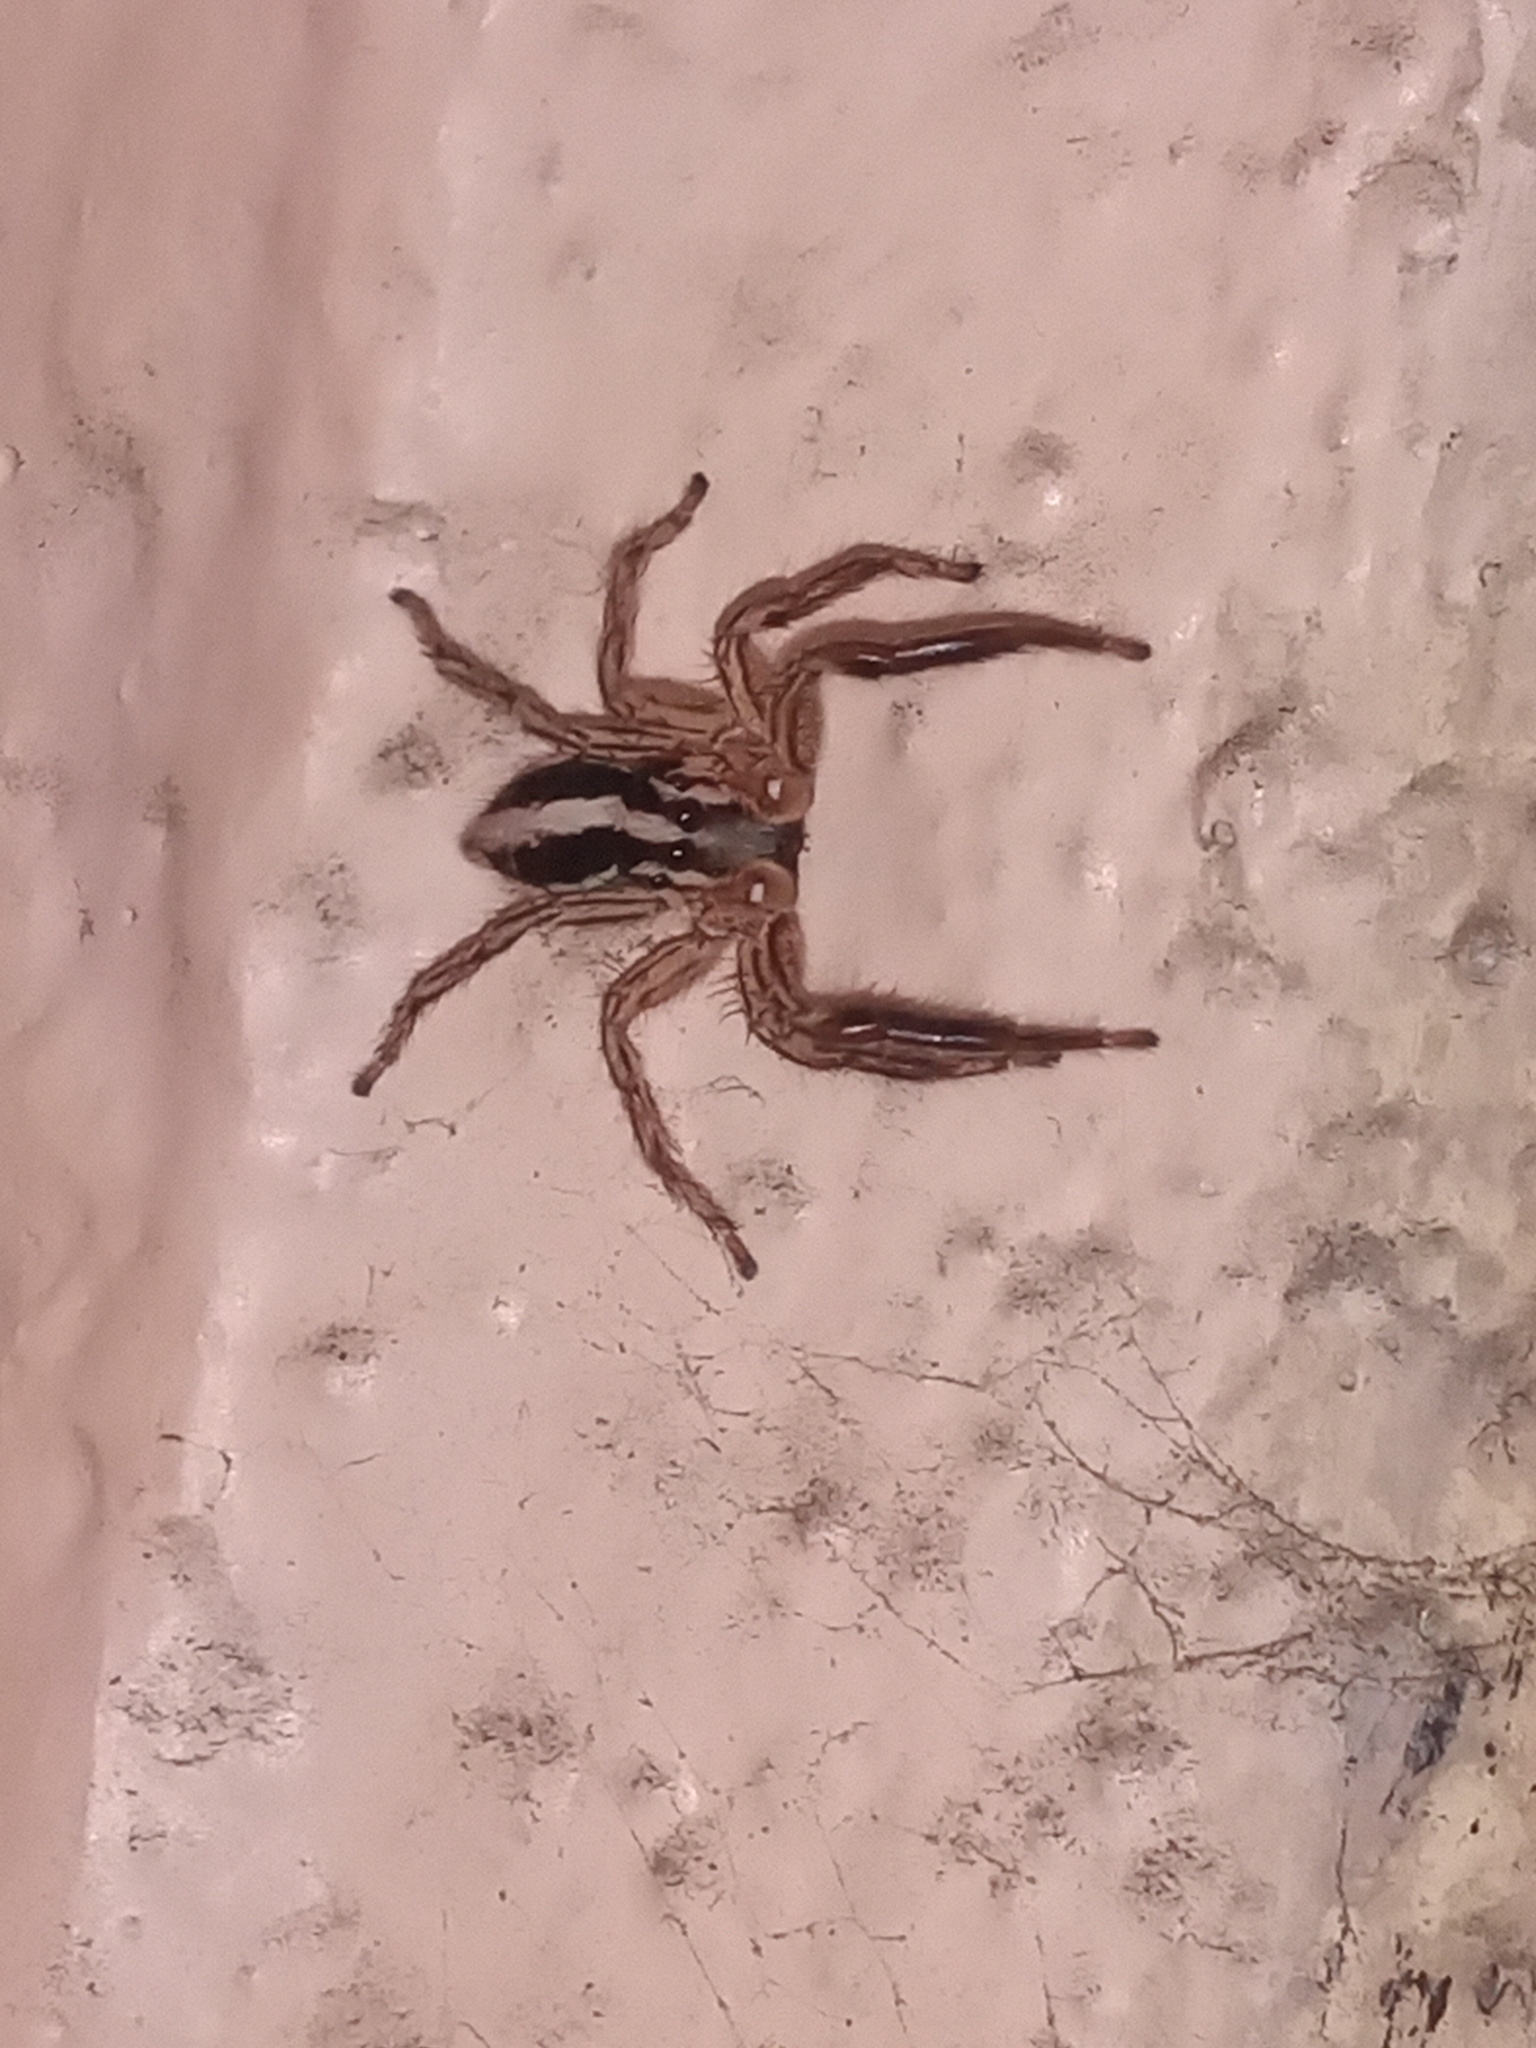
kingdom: Animalia
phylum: Arthropoda
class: Arachnida
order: Araneae
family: Salticidae
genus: Plexippus
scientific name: Plexippus paykulli
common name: Pantropical jumper
